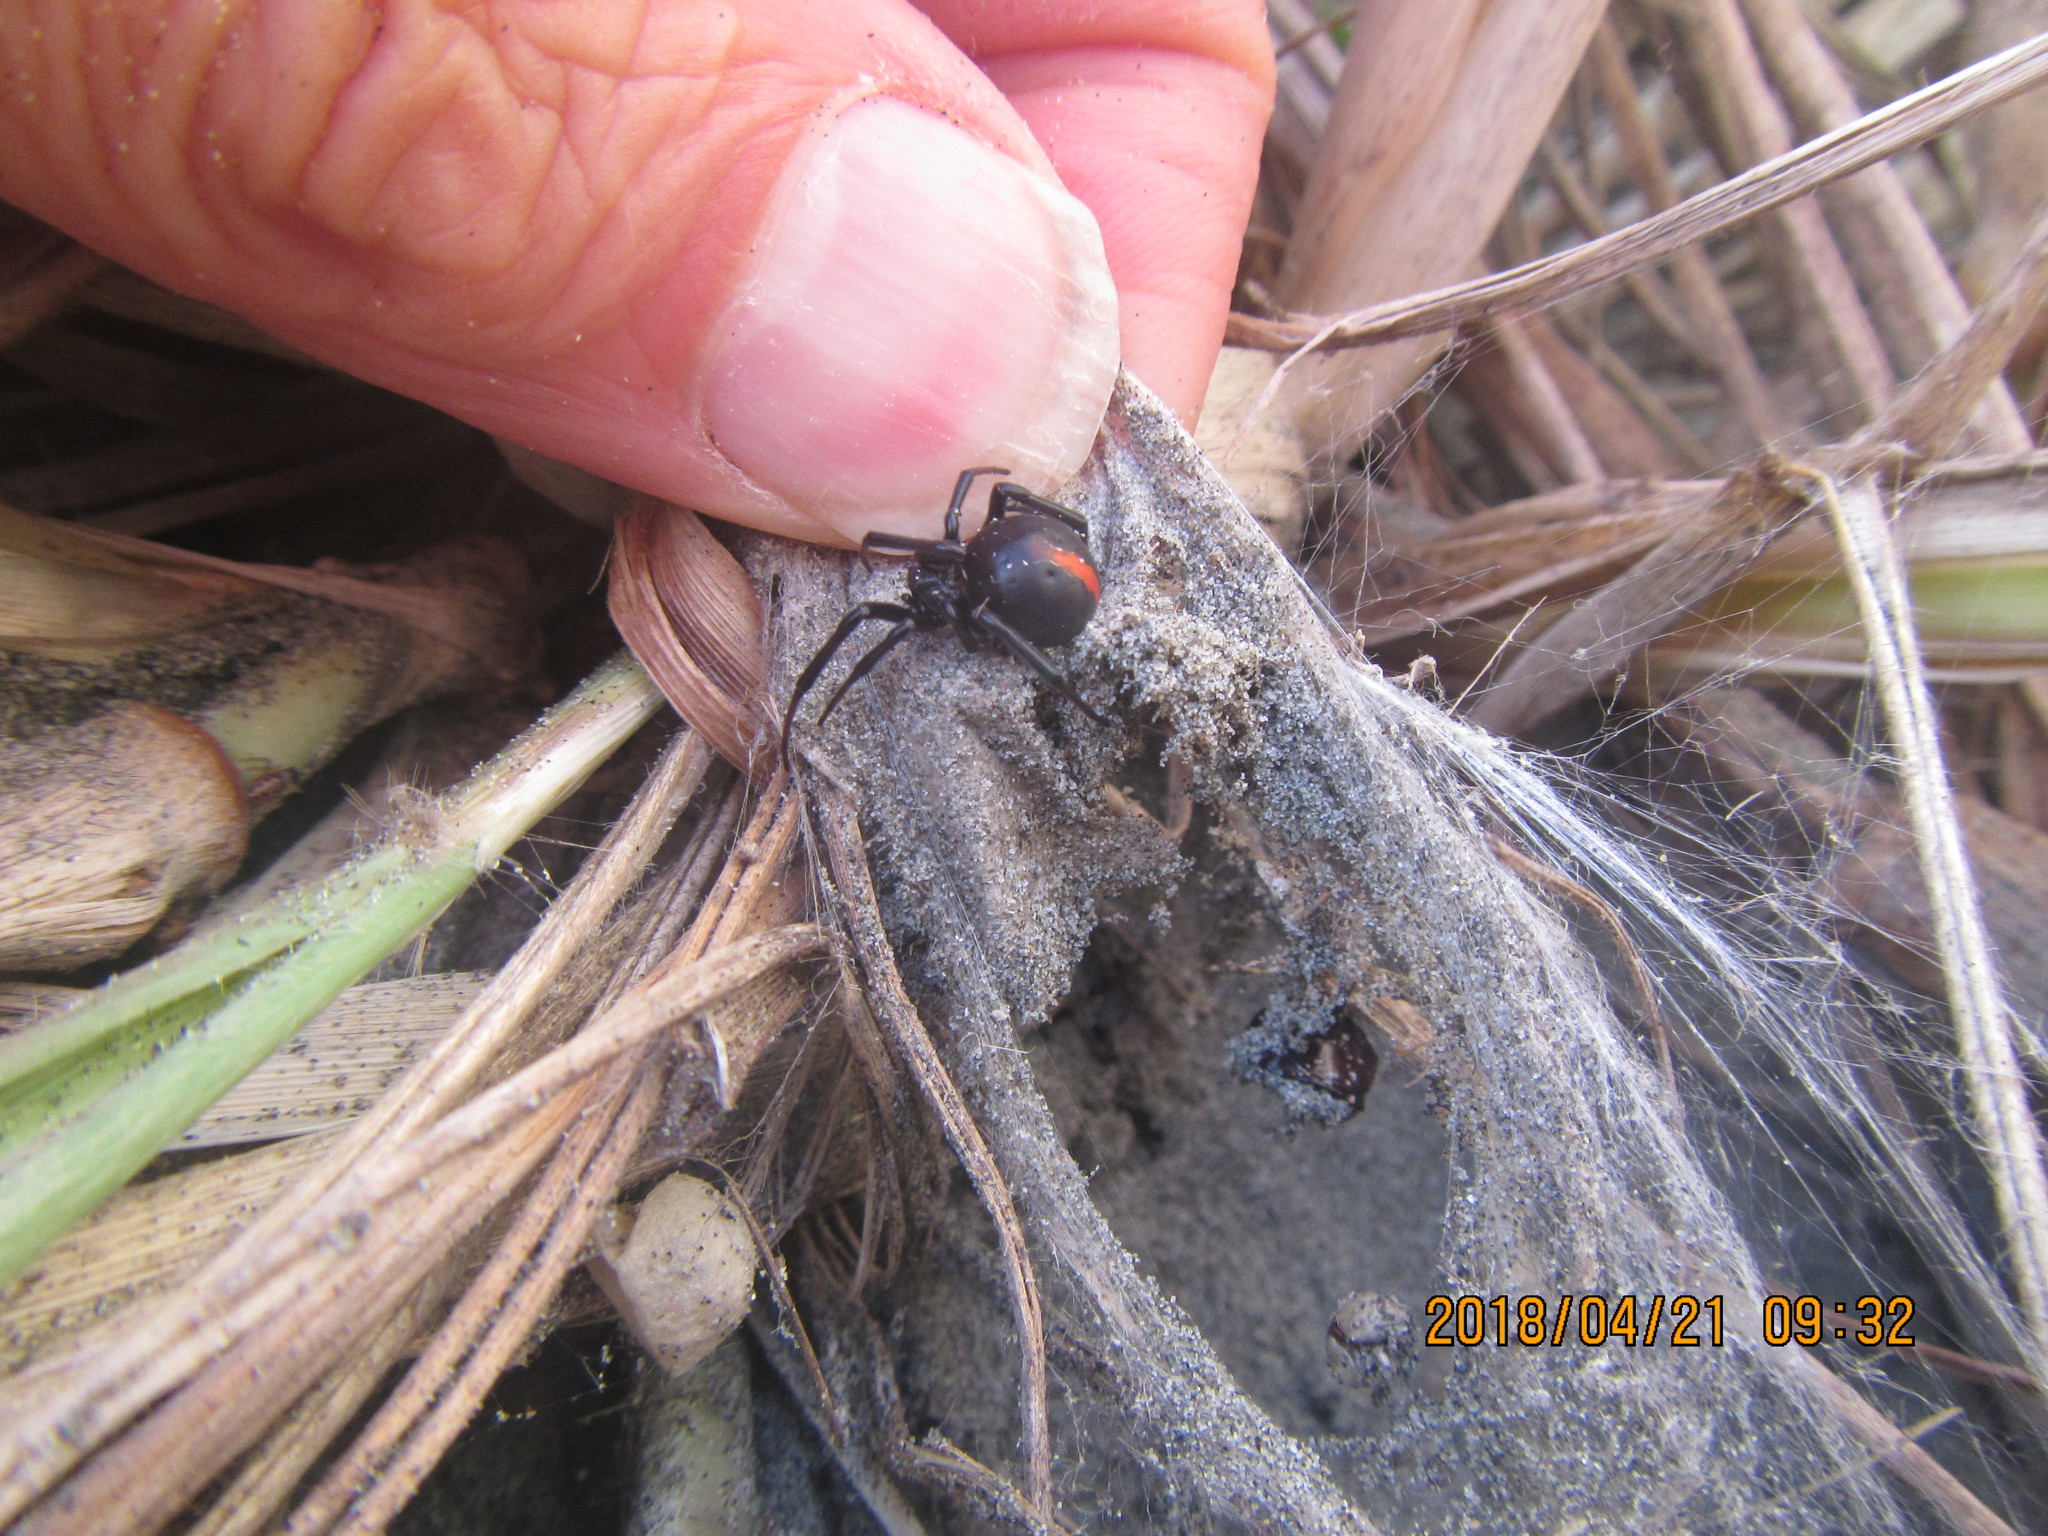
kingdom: Animalia
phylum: Arthropoda
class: Arachnida
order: Araneae
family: Theridiidae
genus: Latrodectus
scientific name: Latrodectus katipo
